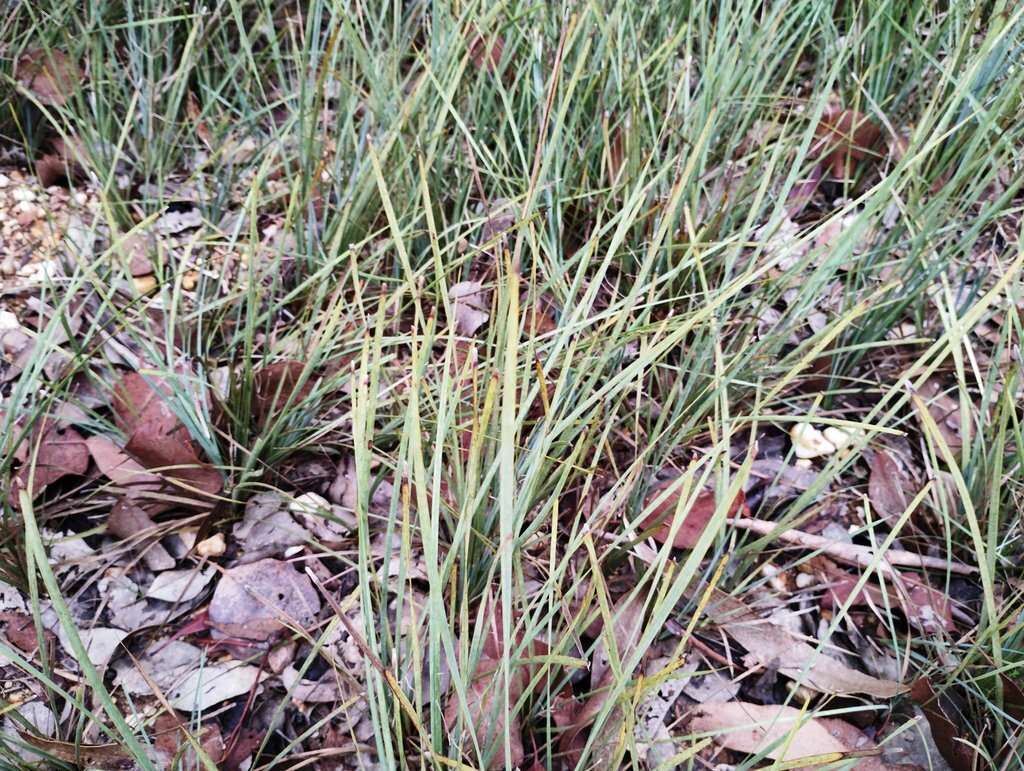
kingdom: Plantae
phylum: Tracheophyta
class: Liliopsida
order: Asparagales
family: Asparagaceae
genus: Lomandra
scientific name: Lomandra filiformis
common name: Wattle mat-rush
